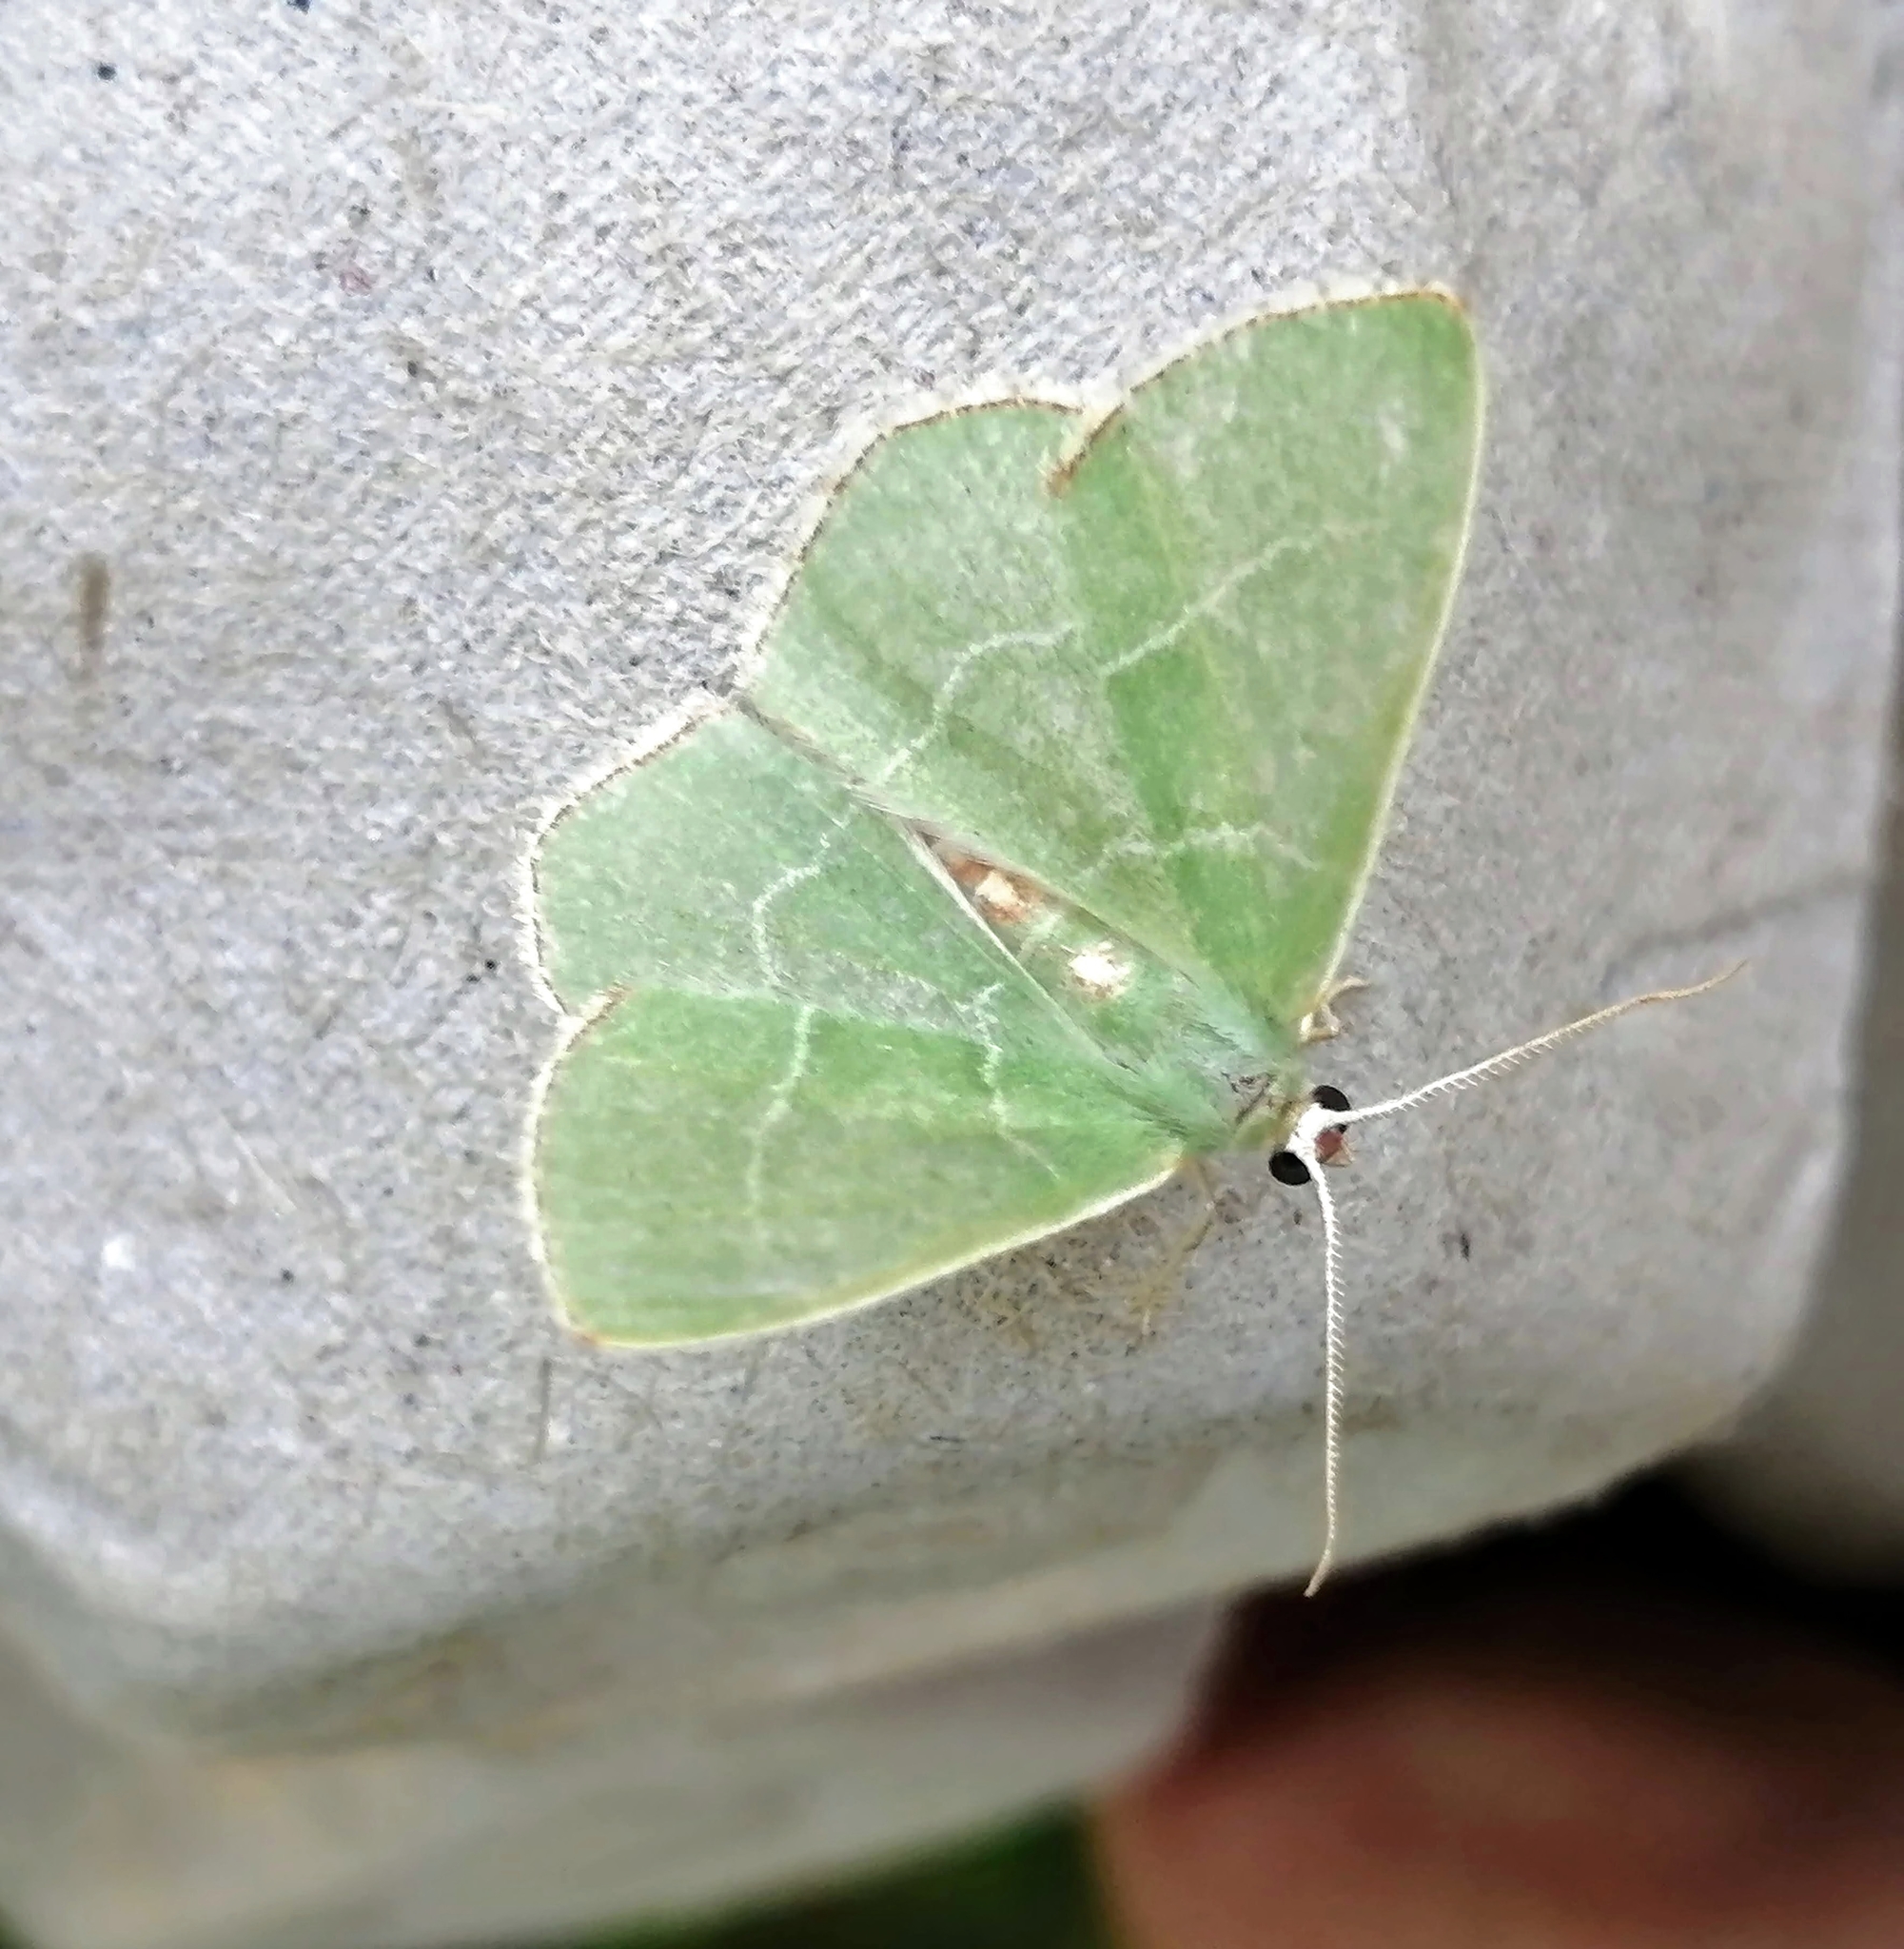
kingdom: Animalia
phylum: Arthropoda
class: Insecta
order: Lepidoptera
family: Geometridae
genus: Nemoria
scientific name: Nemoria bistriaria
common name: Red-fringed emerald
